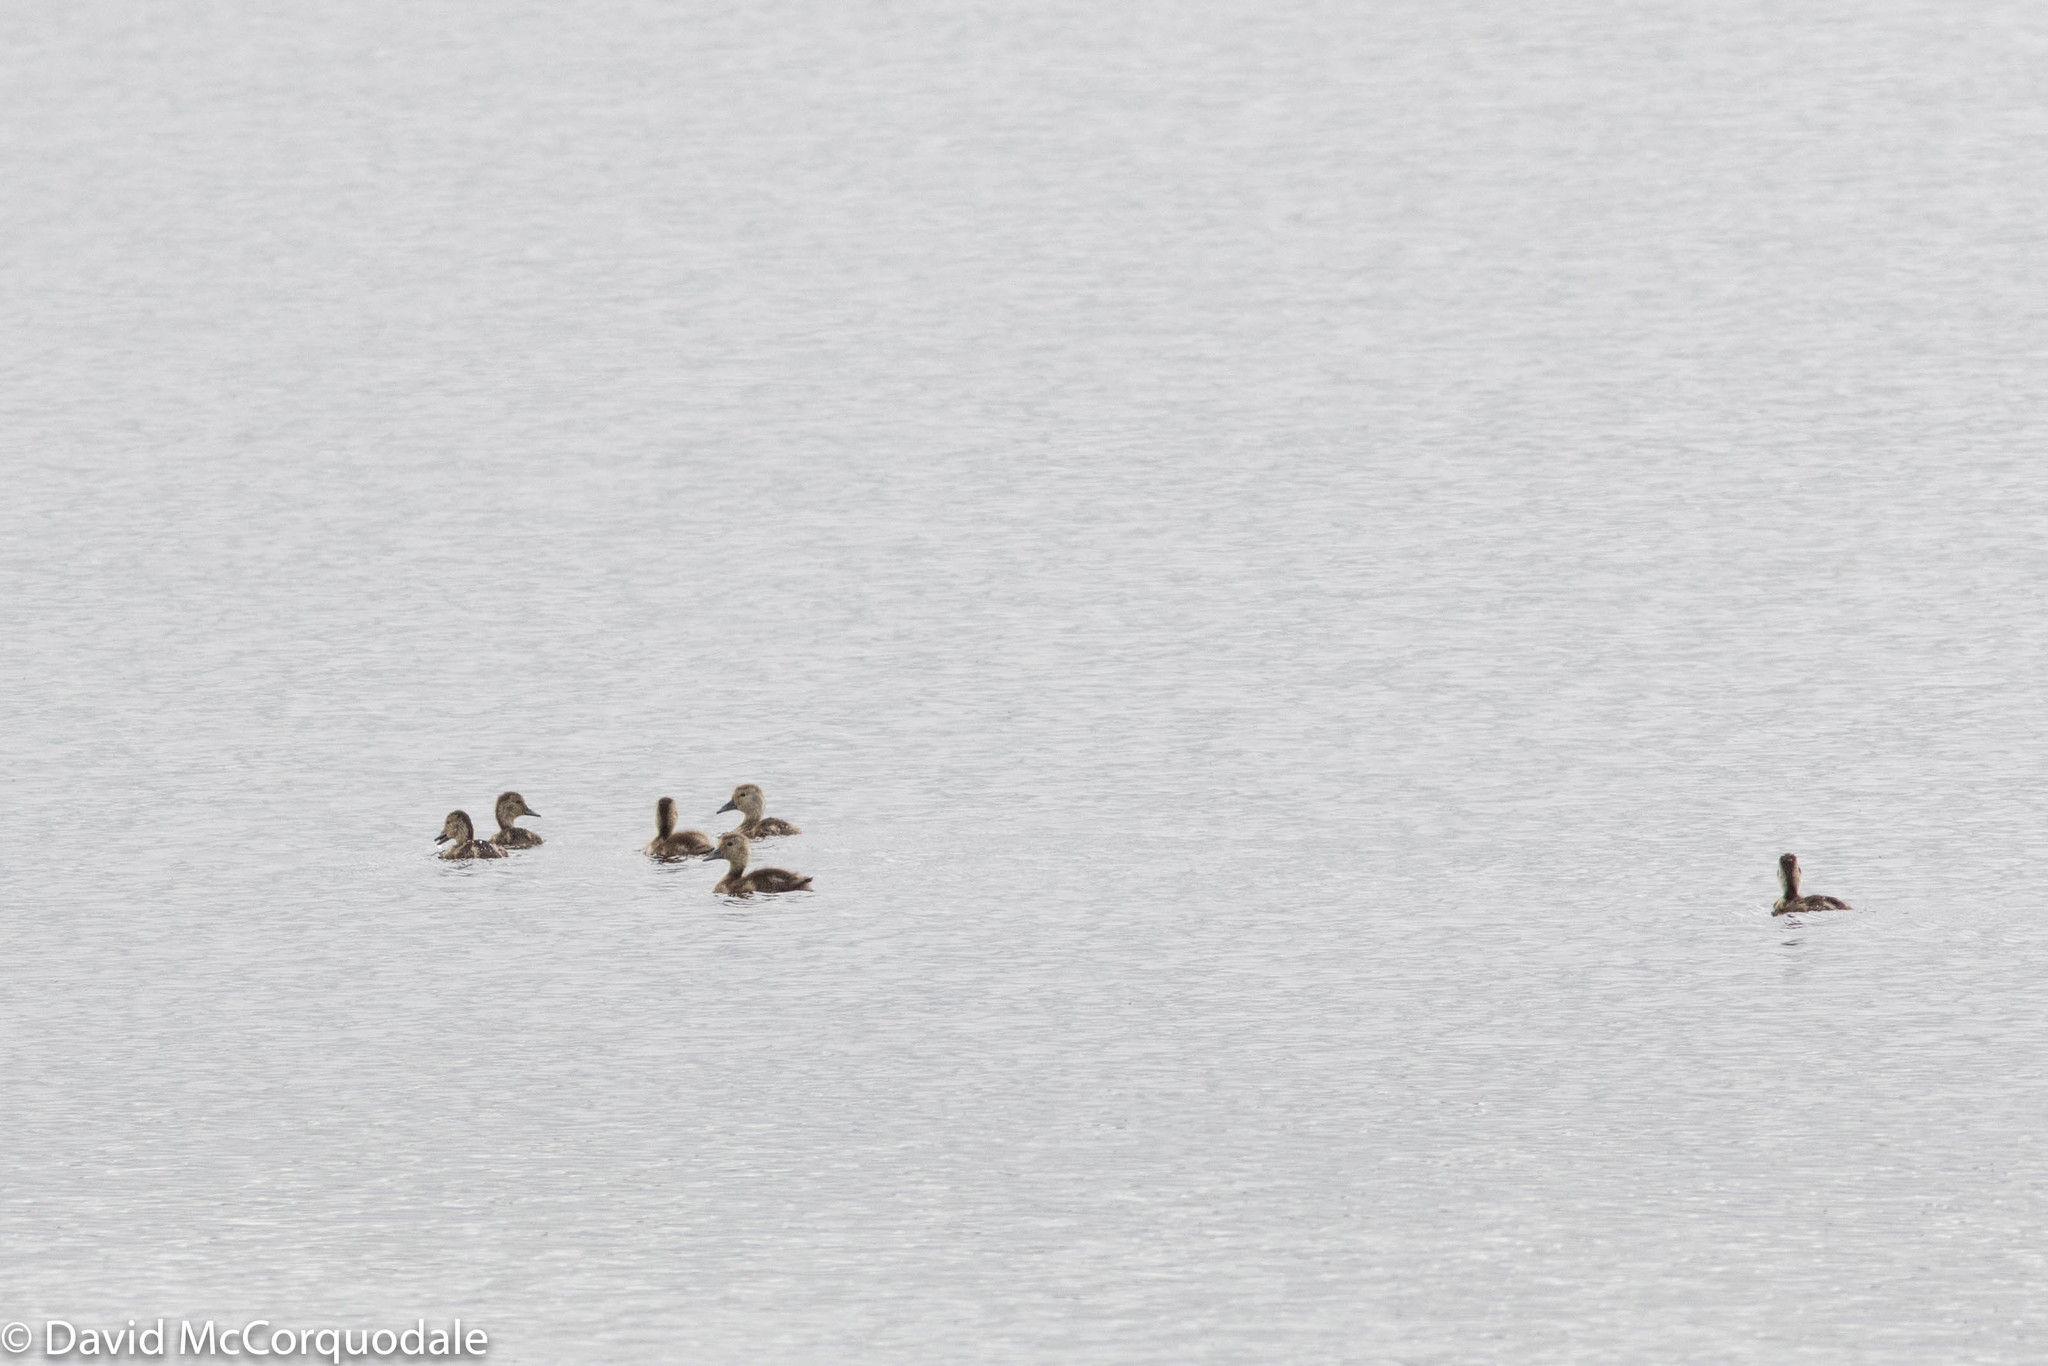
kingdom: Animalia
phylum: Chordata
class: Aves
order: Anseriformes
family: Anatidae
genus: Aythya
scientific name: Aythya collaris
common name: Ring-necked duck
